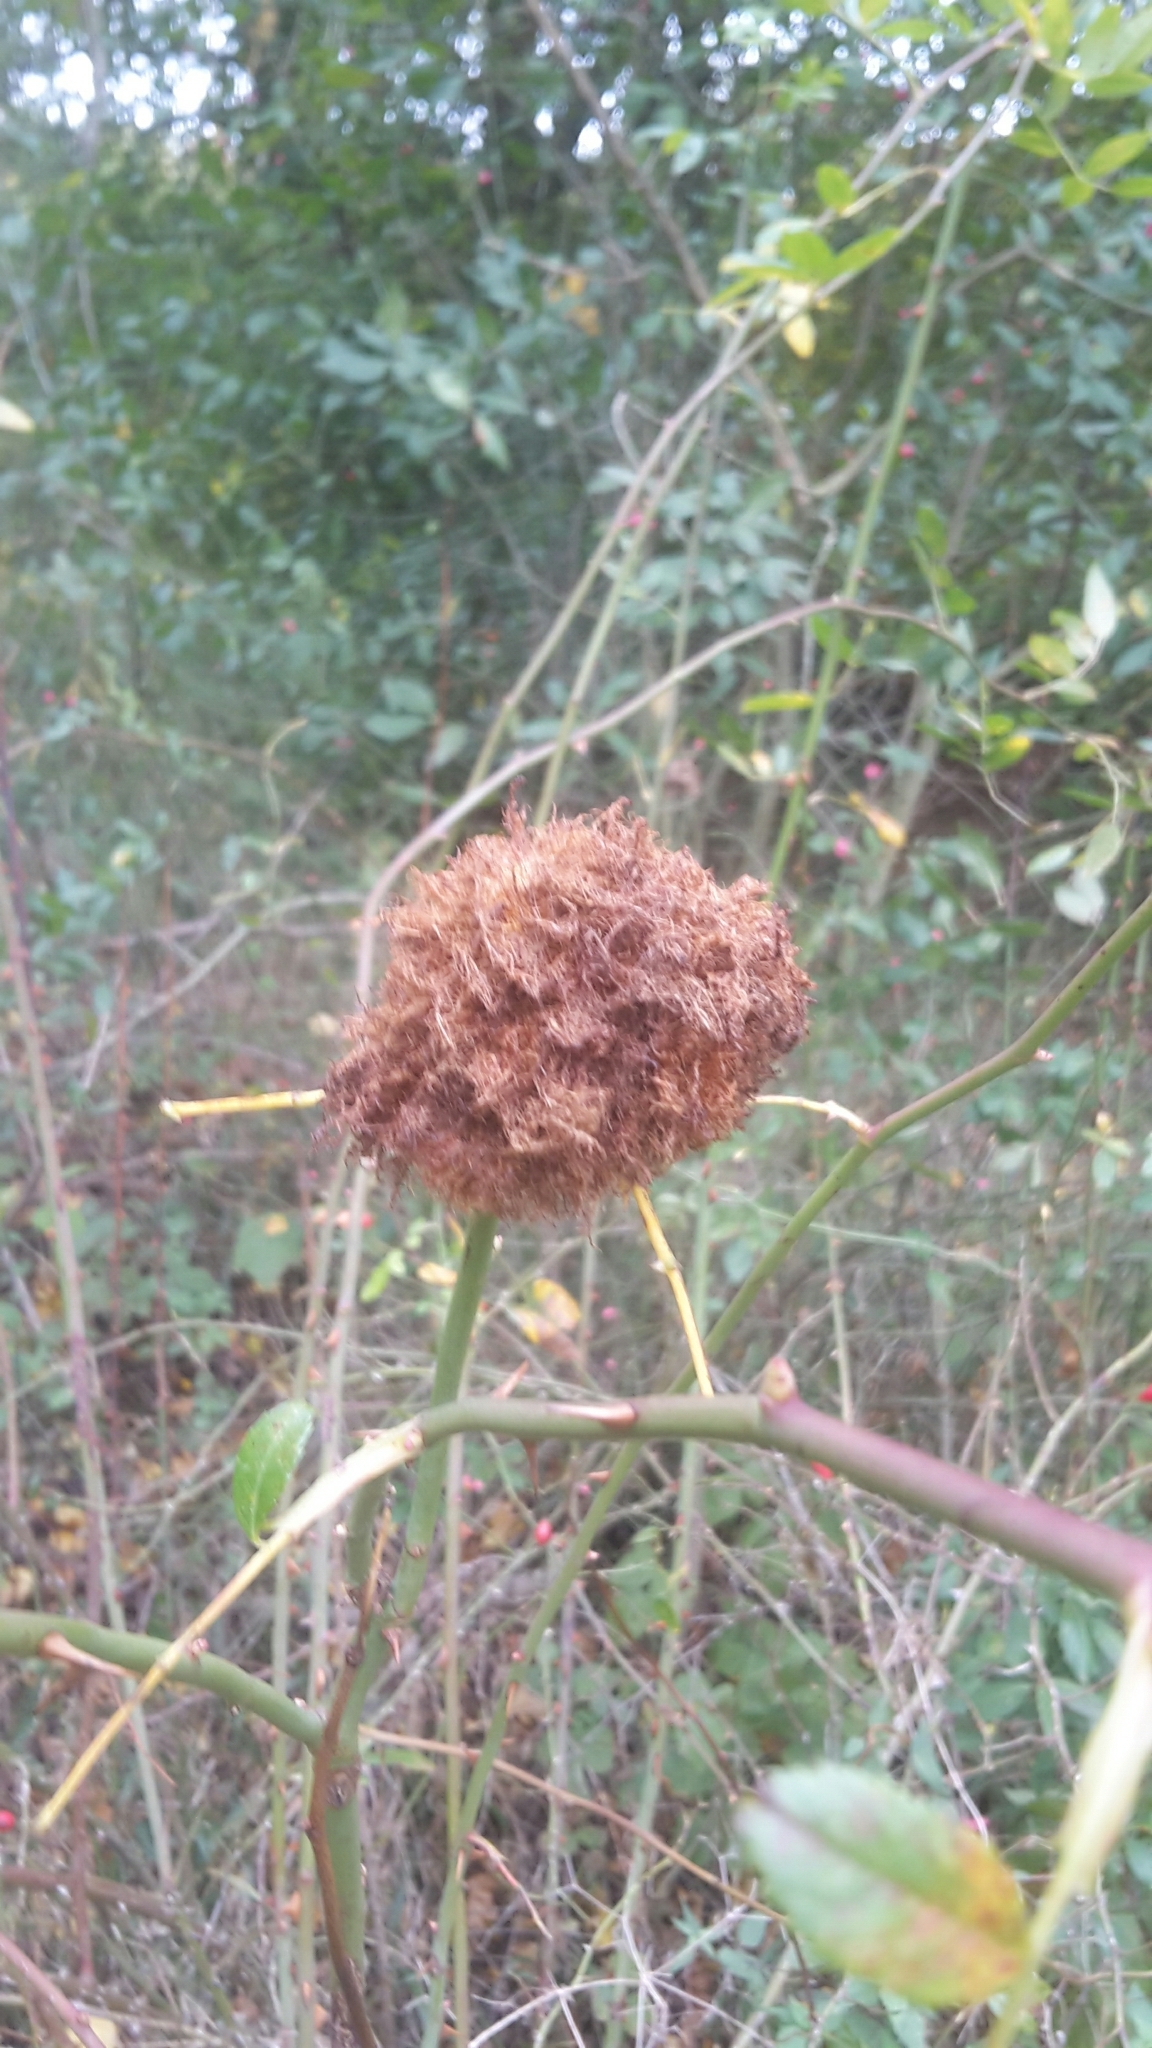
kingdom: Animalia
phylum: Arthropoda
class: Insecta
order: Hymenoptera
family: Cynipidae
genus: Diplolepis
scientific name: Diplolepis rosae
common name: Bedeguar gall
